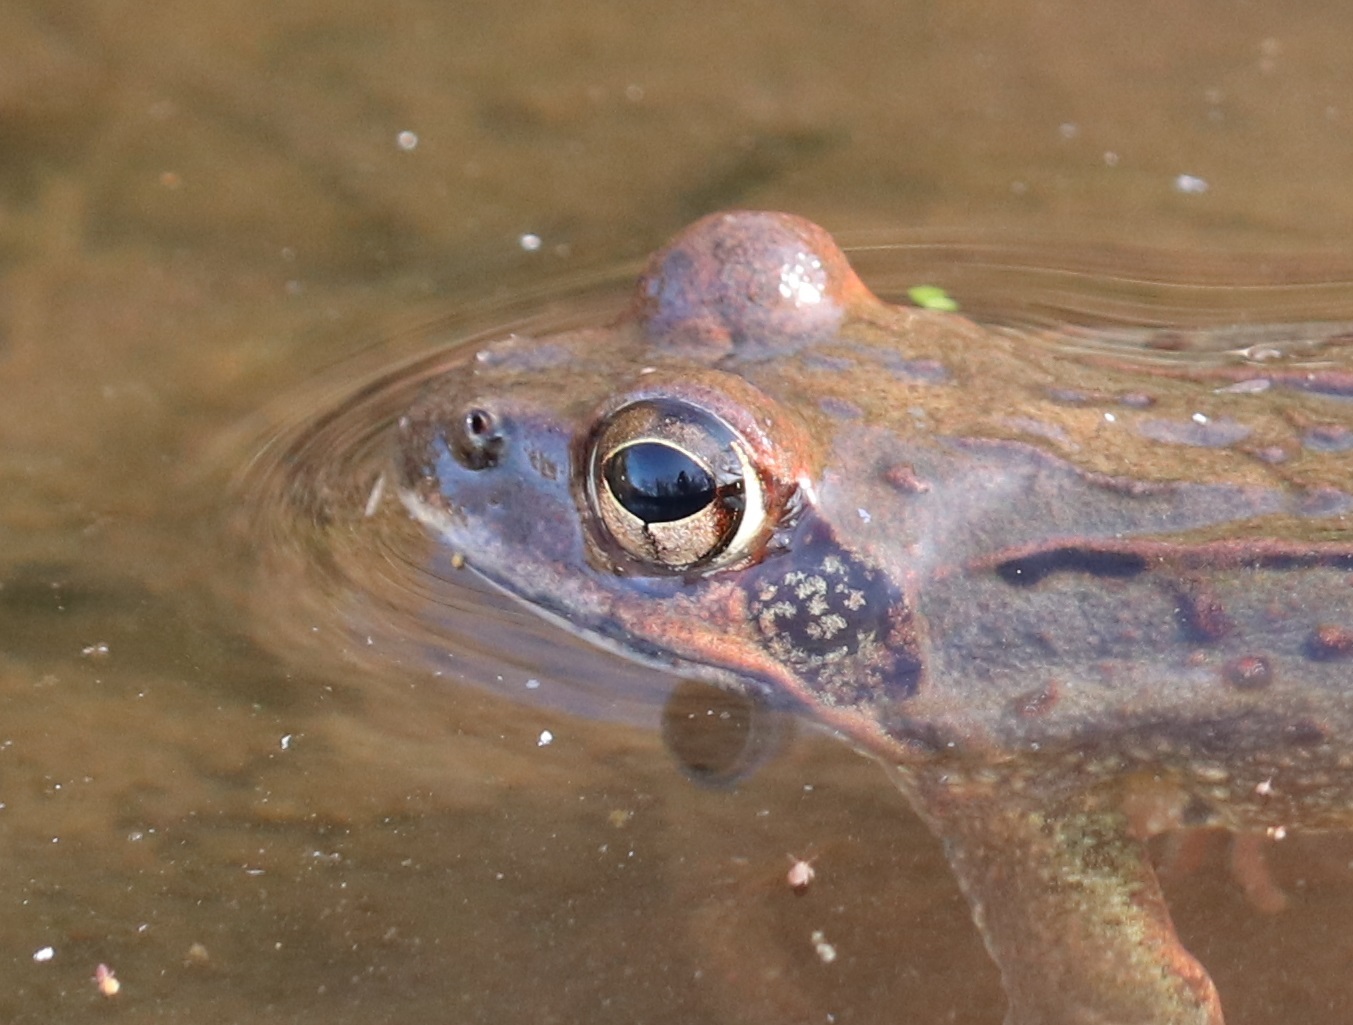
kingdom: Animalia
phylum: Chordata
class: Amphibia
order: Anura
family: Ranidae
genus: Rana
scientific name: Rana ornativentris
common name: Montane brown frog
